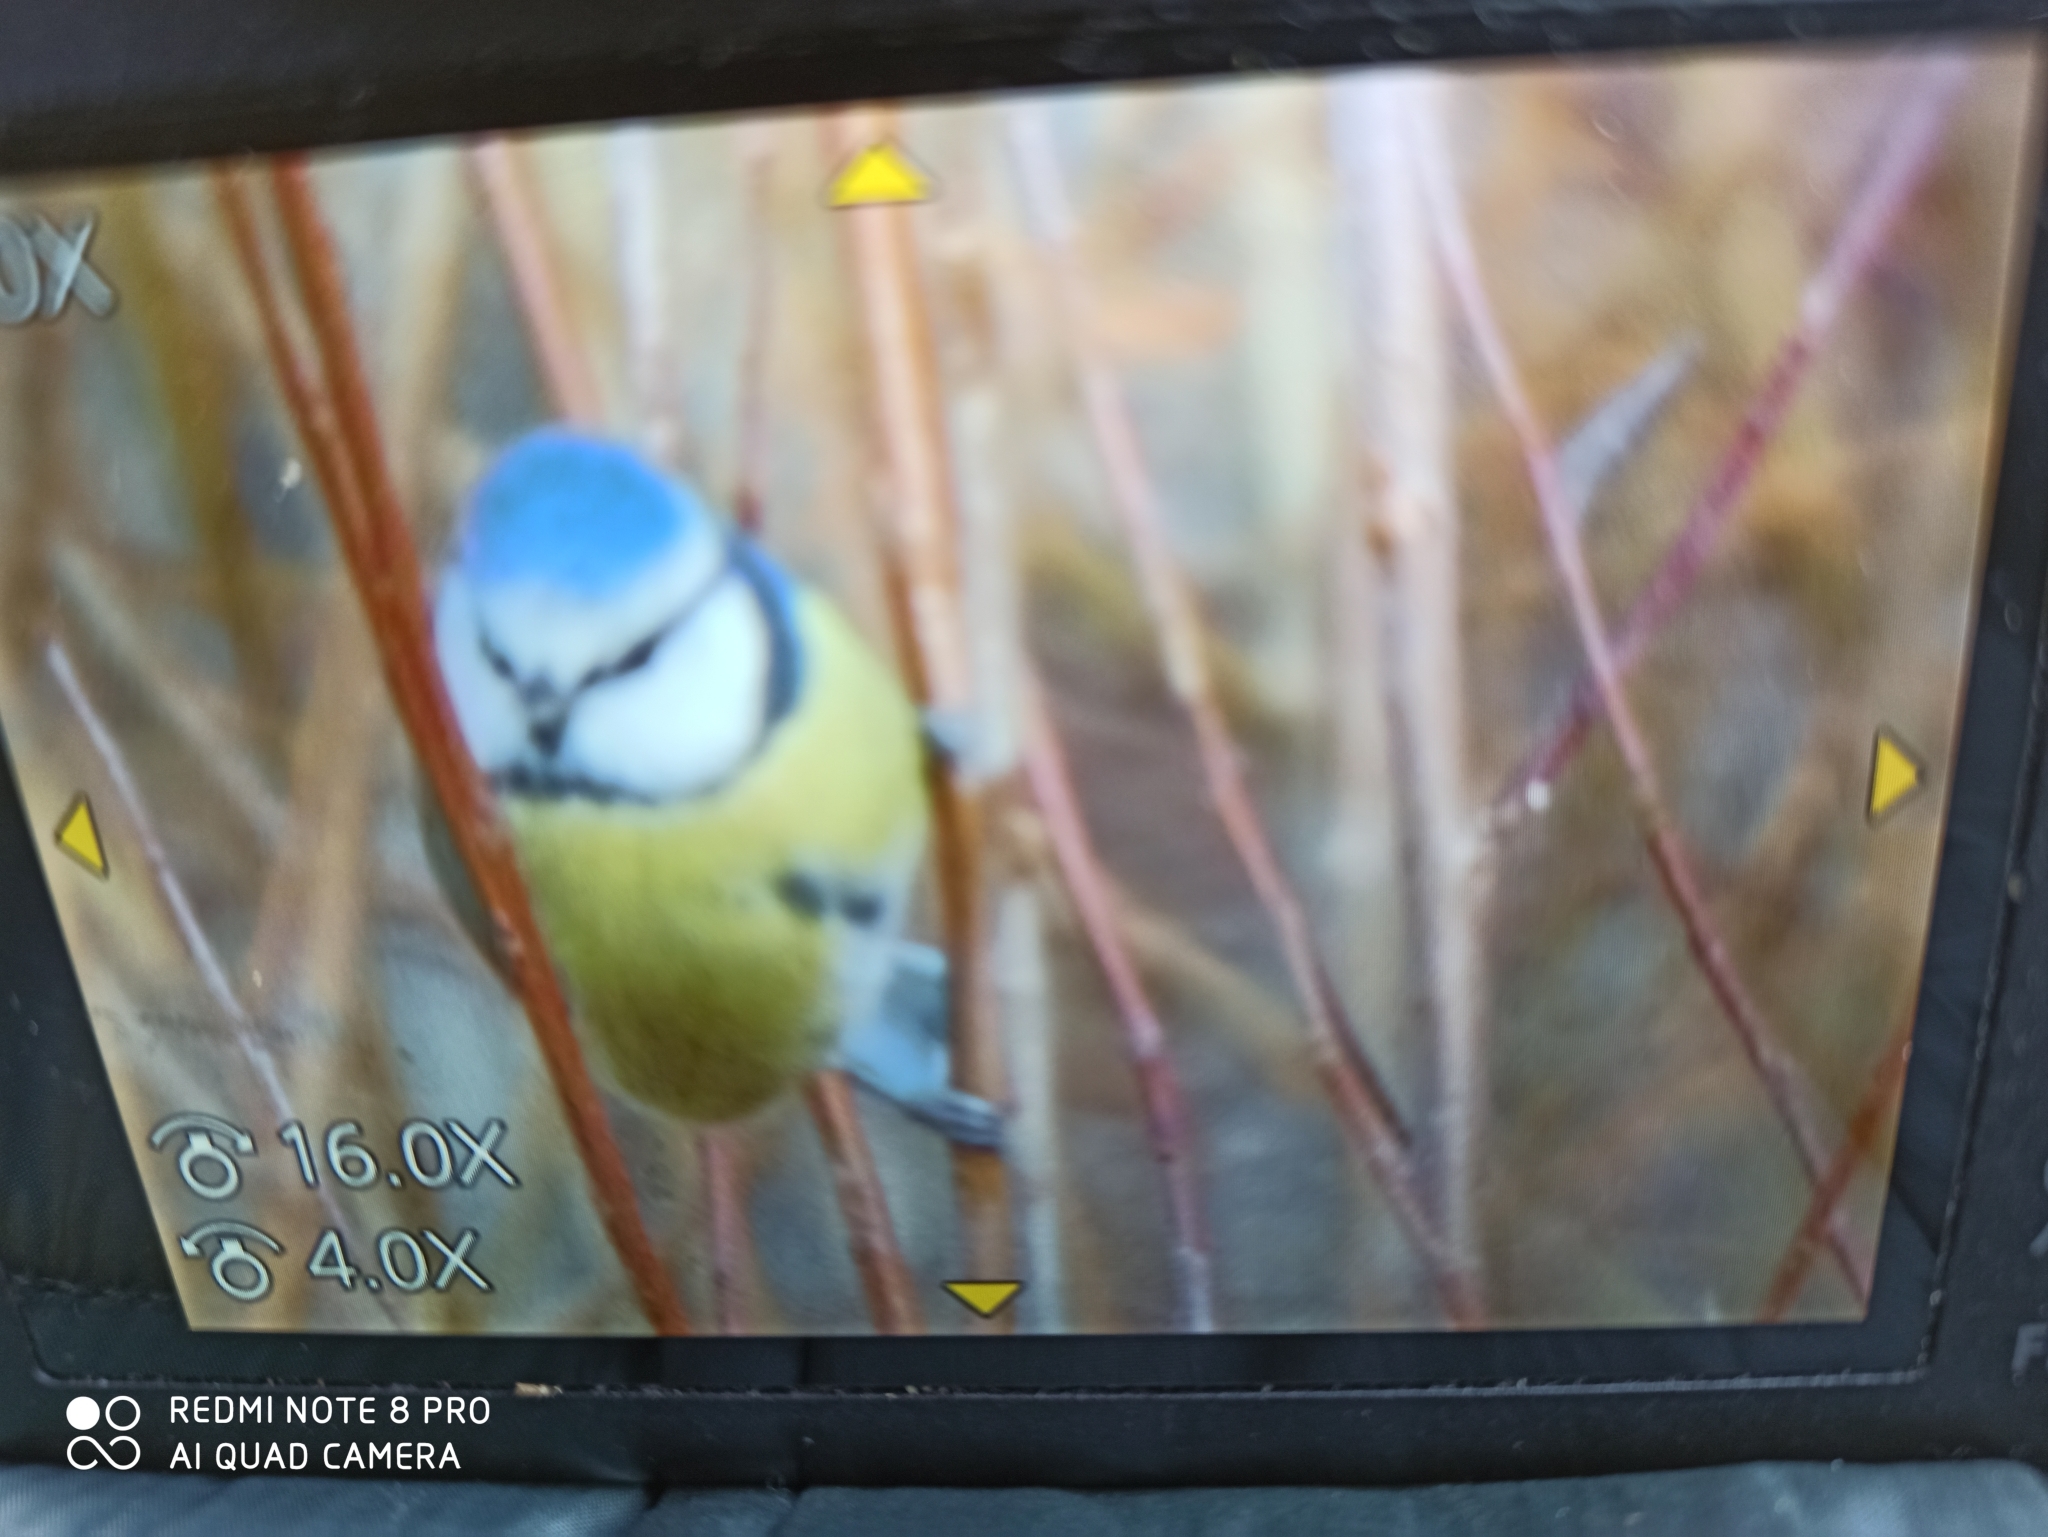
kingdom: Animalia
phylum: Chordata
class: Aves
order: Passeriformes
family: Paridae
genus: Cyanistes
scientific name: Cyanistes caeruleus
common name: Eurasian blue tit
